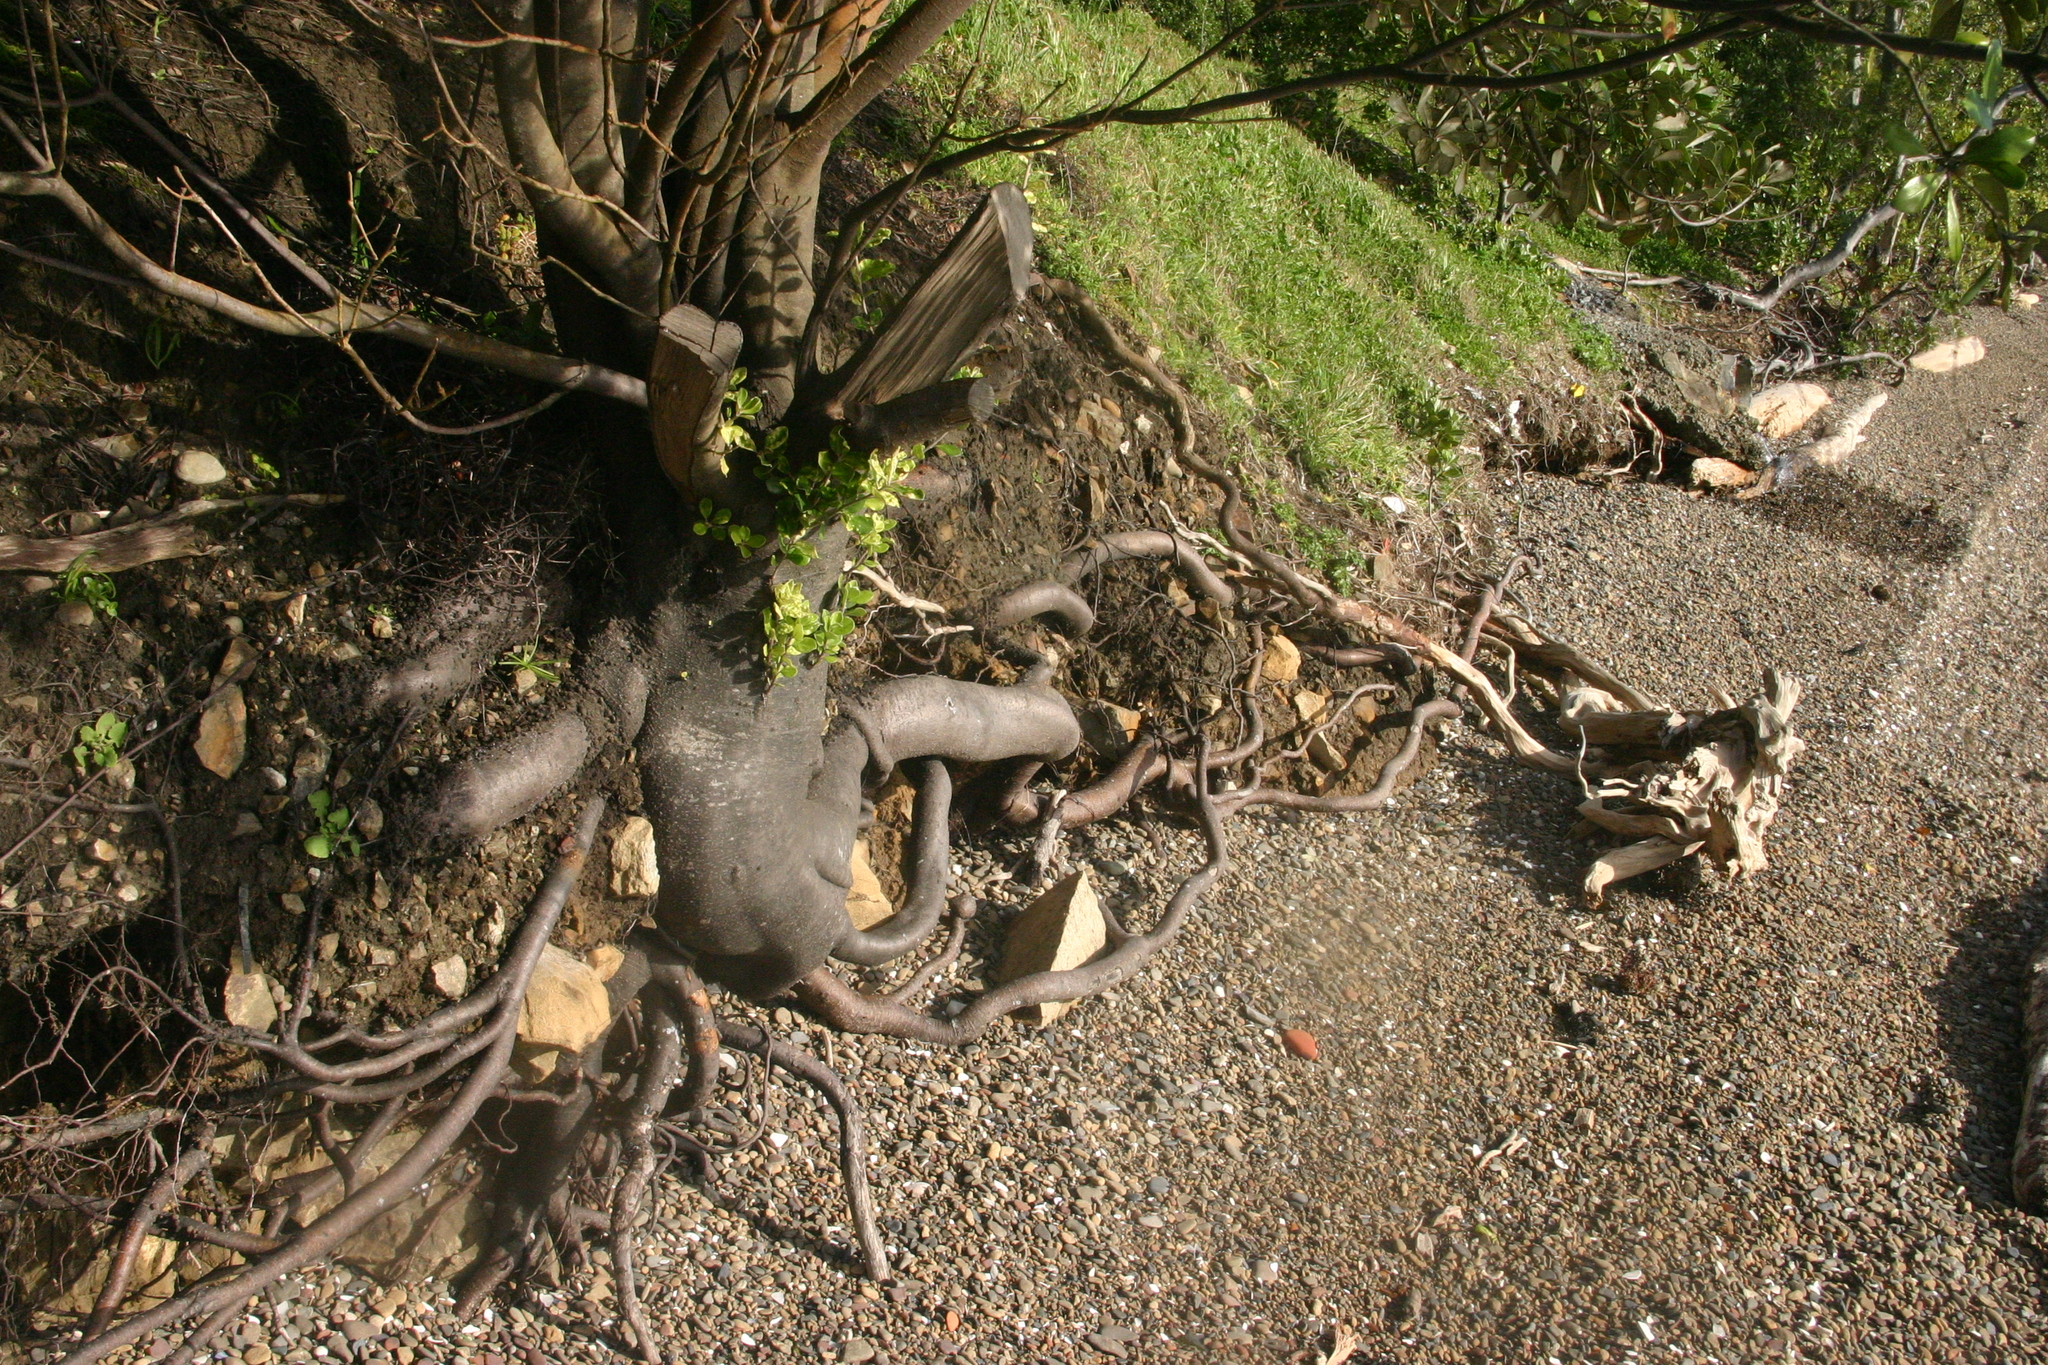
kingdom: Plantae
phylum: Tracheophyta
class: Magnoliopsida
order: Myrtales
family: Myrtaceae
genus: Metrosideros
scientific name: Metrosideros excelsa
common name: New zealand christmastree
